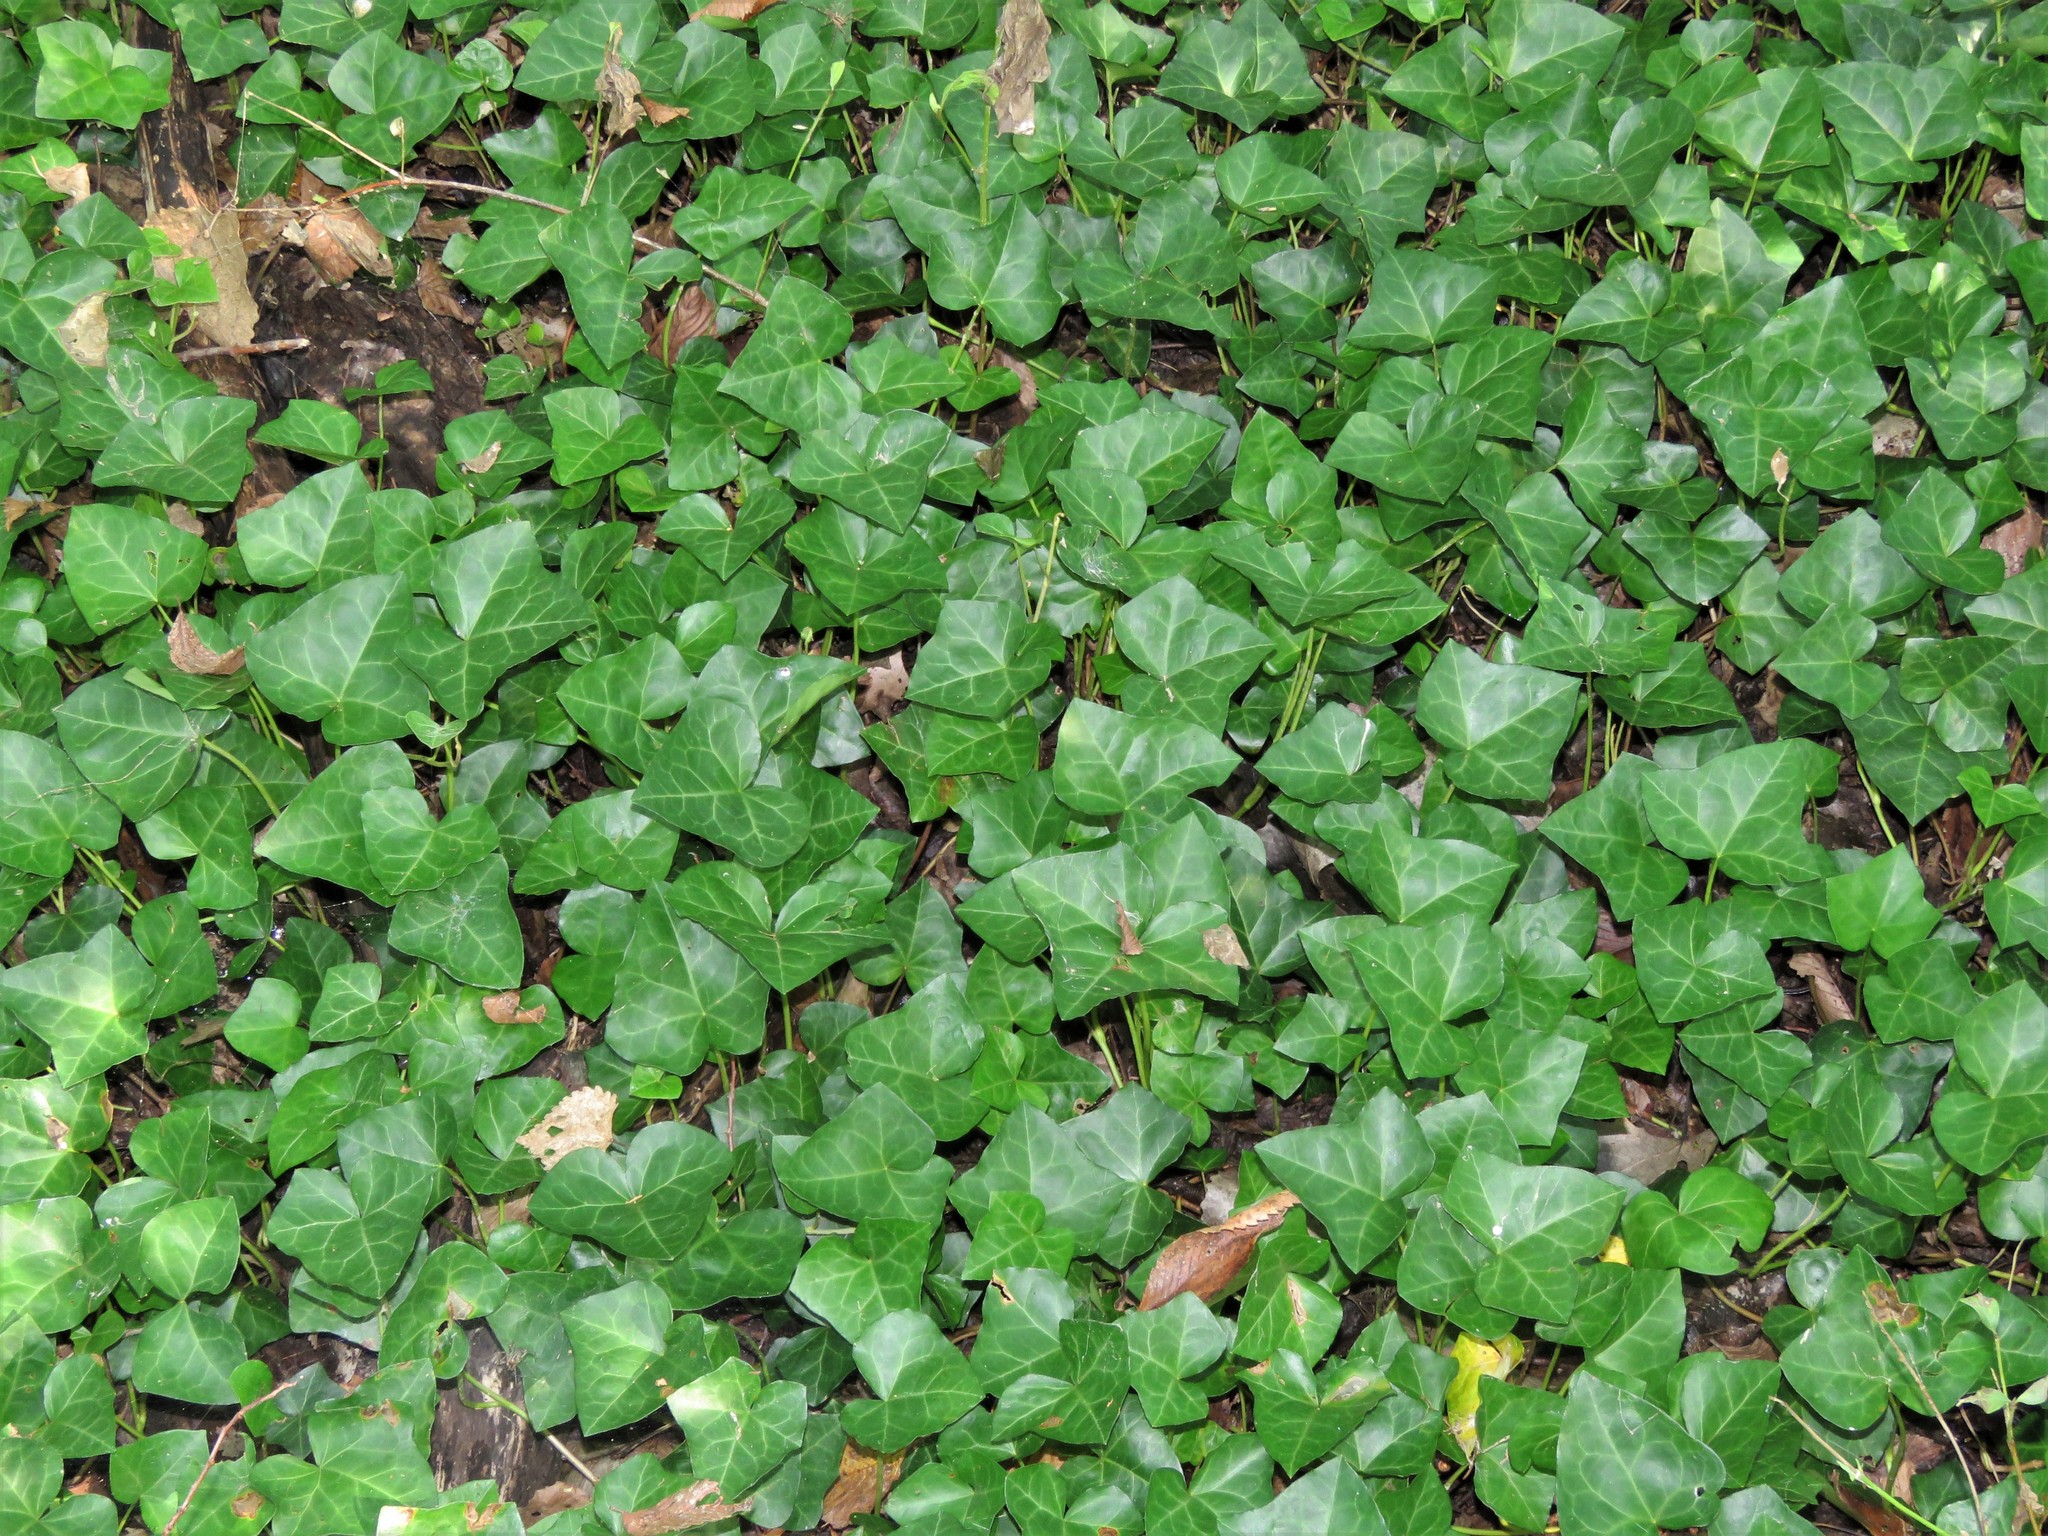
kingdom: Plantae
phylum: Tracheophyta
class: Magnoliopsida
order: Apiales
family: Araliaceae
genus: Hedera
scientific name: Hedera helix
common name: Ivy
